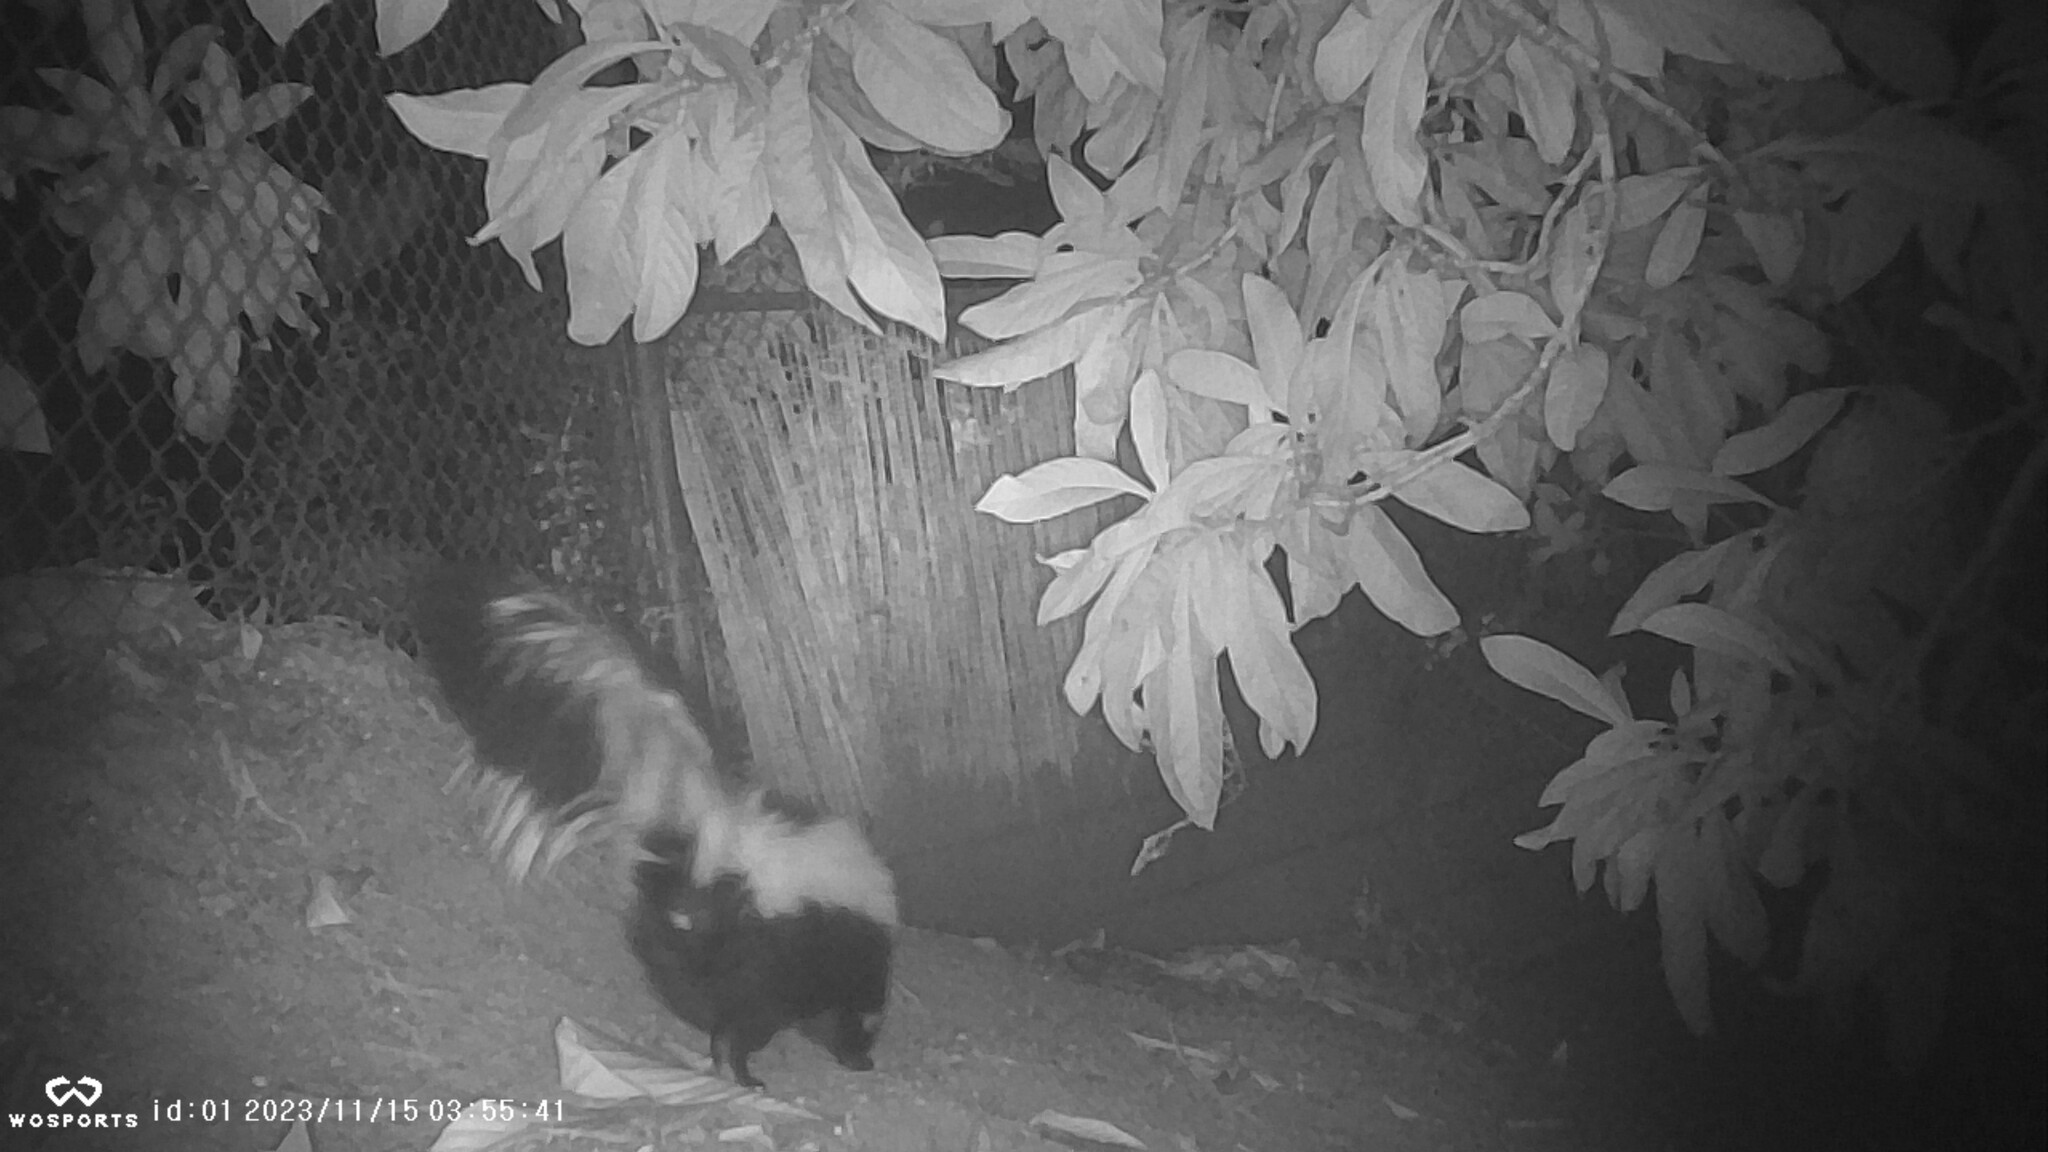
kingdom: Animalia
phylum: Chordata
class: Mammalia
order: Carnivora
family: Mephitidae
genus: Mephitis
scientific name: Mephitis mephitis
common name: Striped skunk
